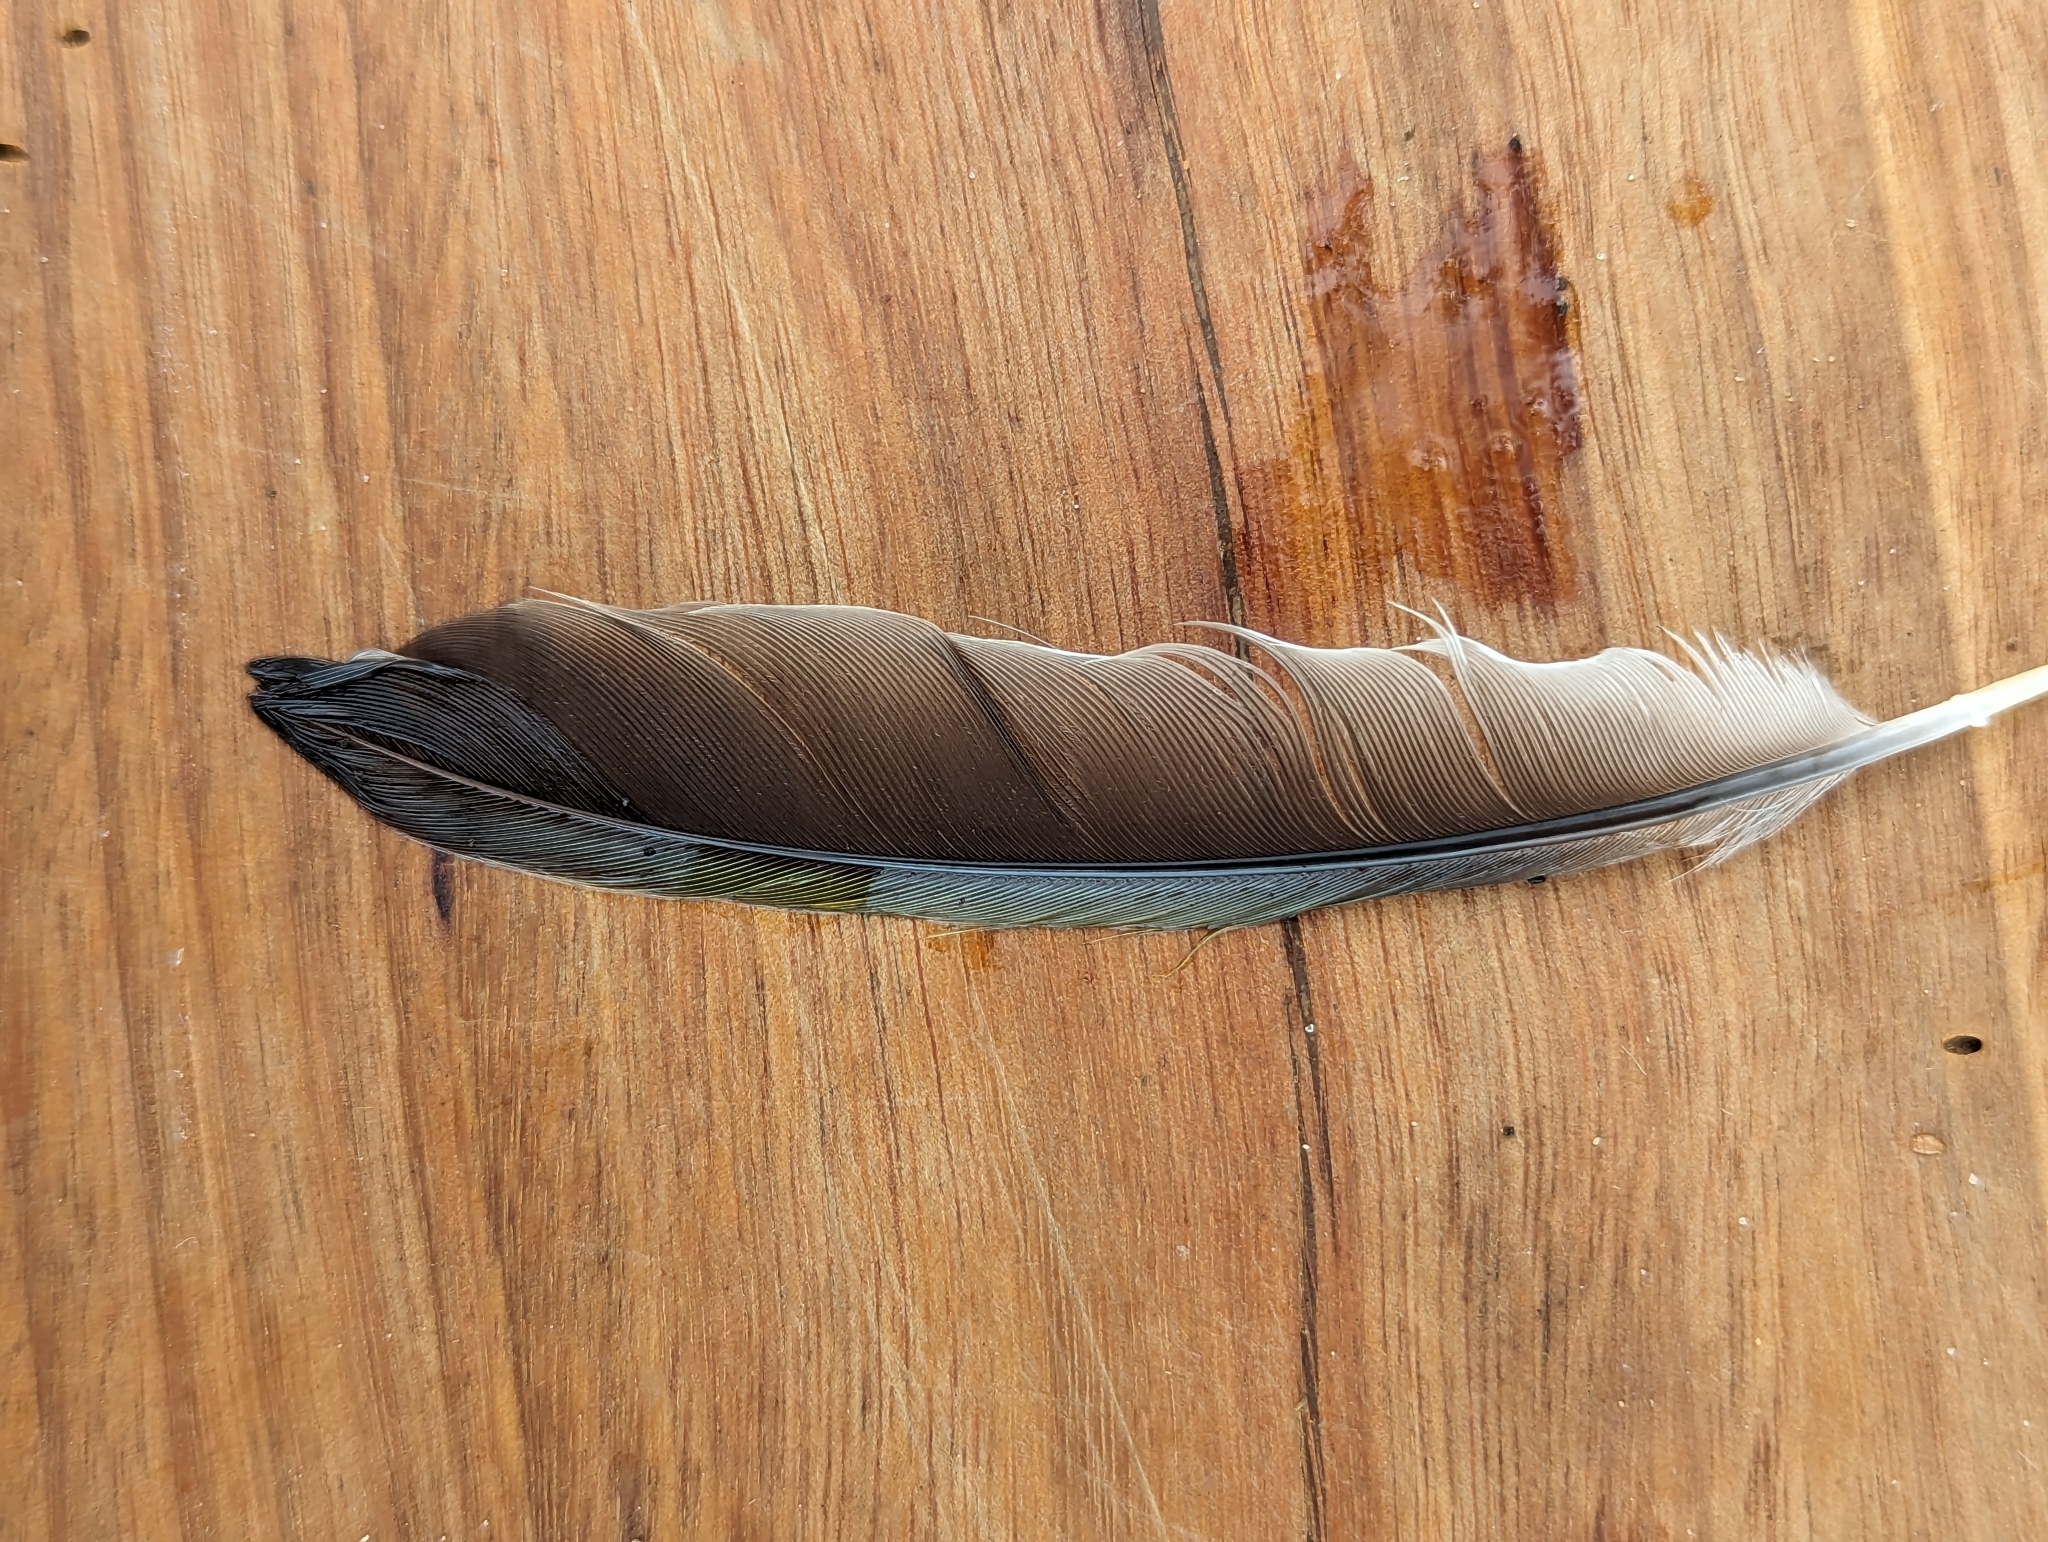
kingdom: Animalia
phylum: Chordata
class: Aves
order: Pelecaniformes
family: Threskiornithidae
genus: Threskiornis
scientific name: Threskiornis spinicollis
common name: Straw-necked ibis
